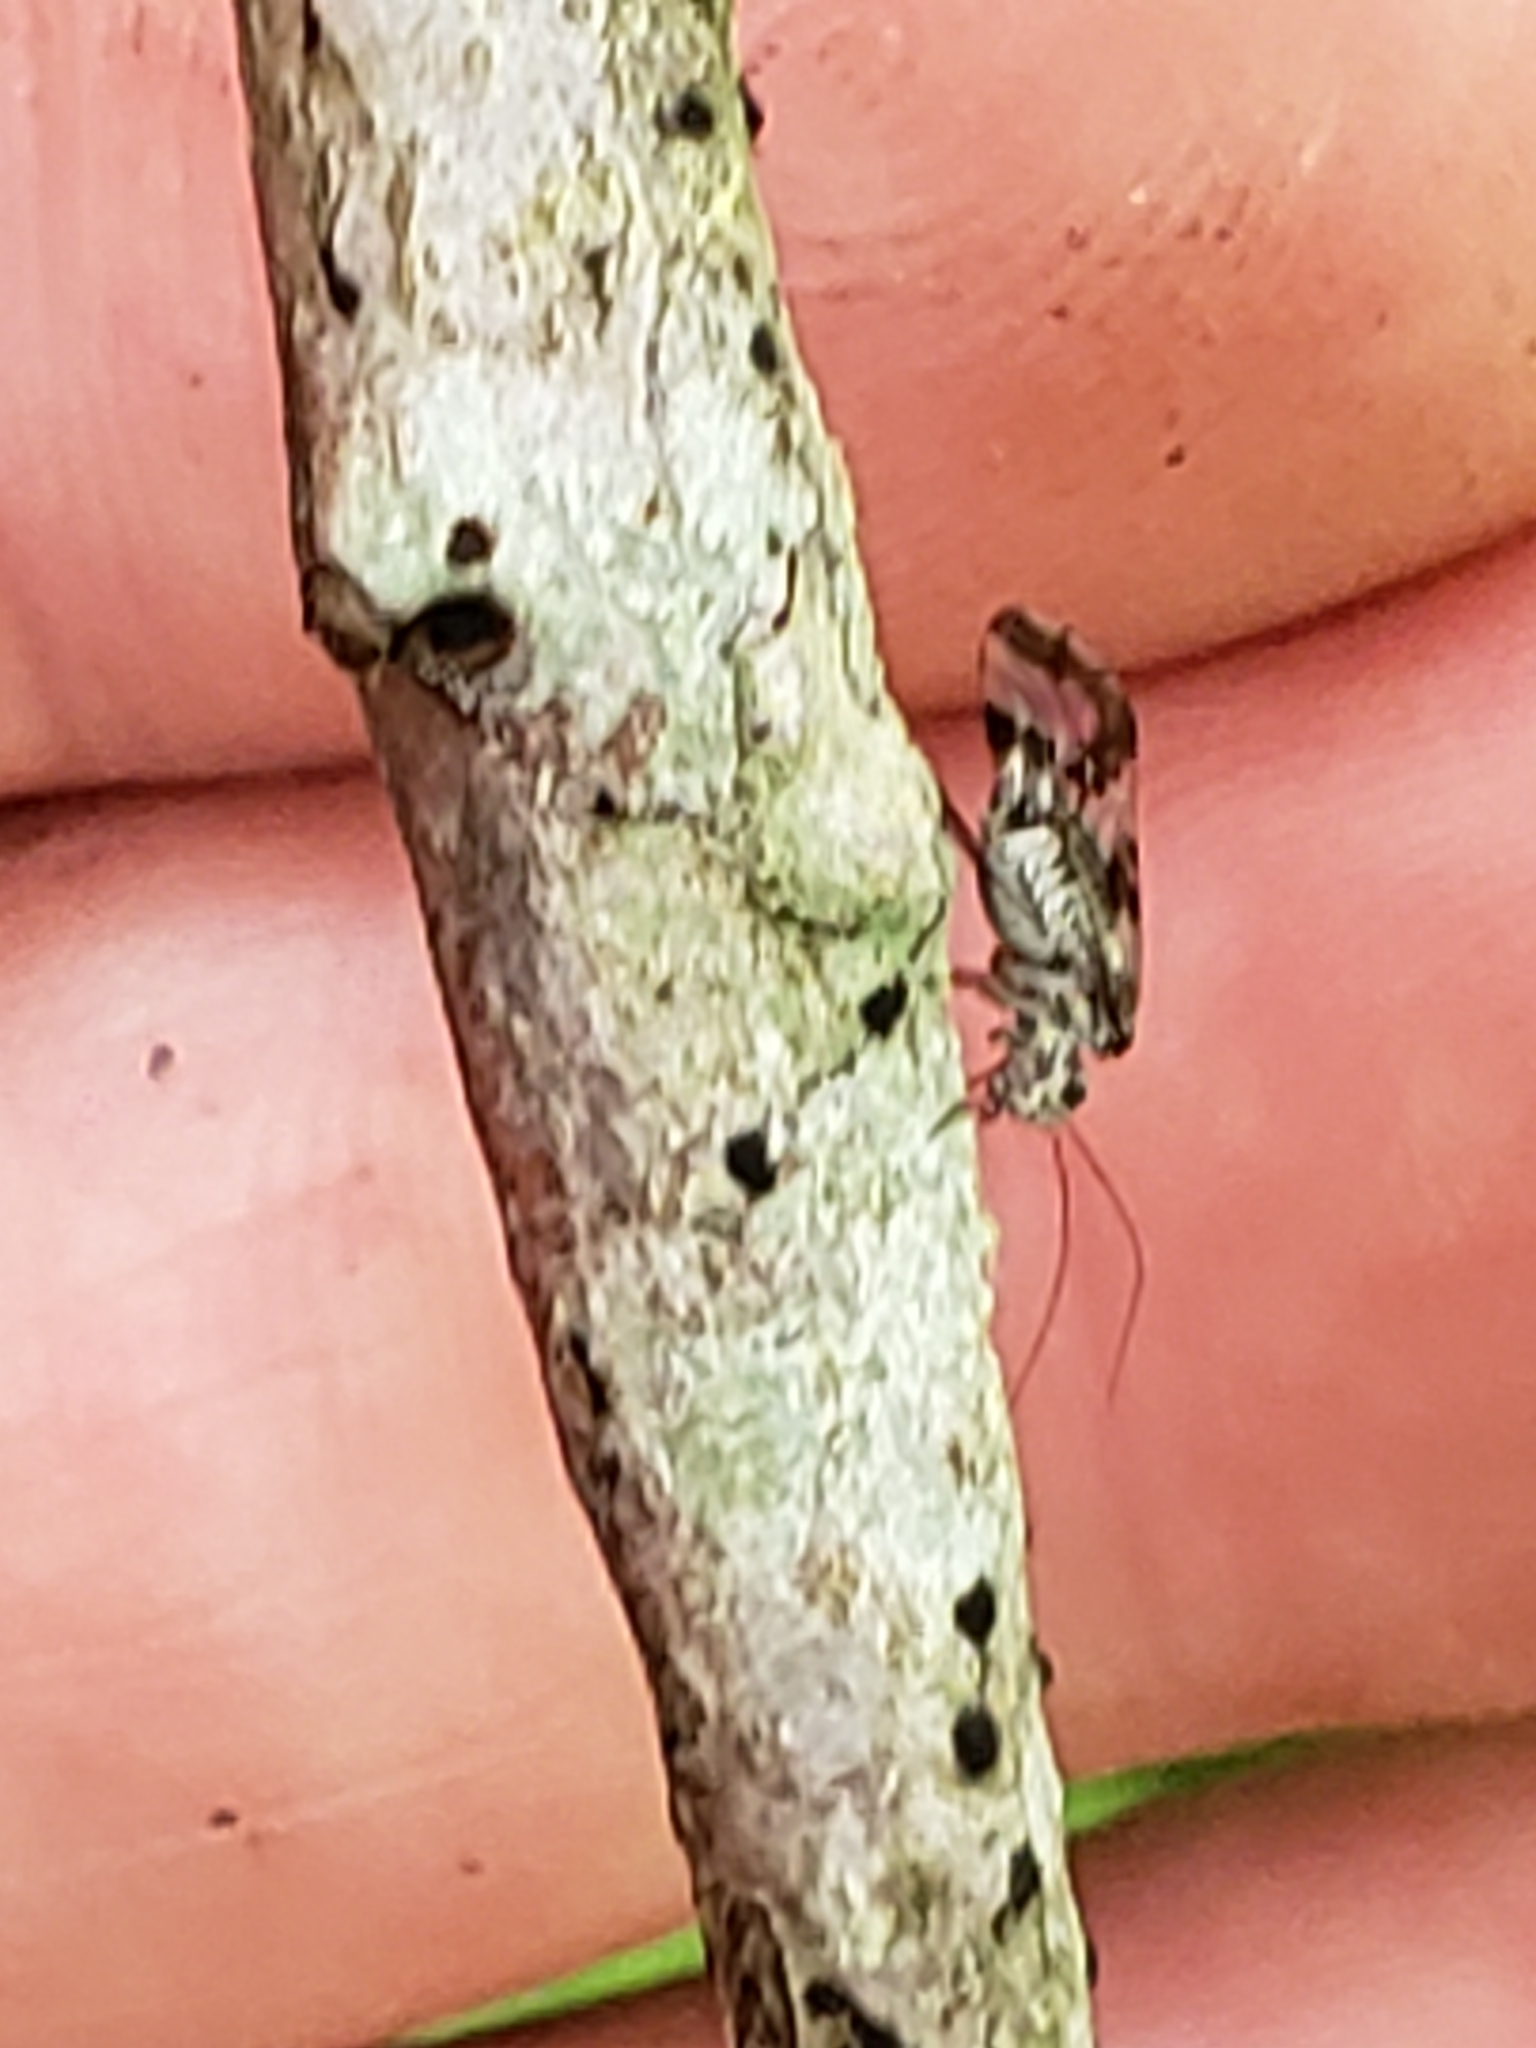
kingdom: Animalia
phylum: Arthropoda
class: Insecta
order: Psocodea
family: Stenopsocidae
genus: Graphopsocus
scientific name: Graphopsocus cruciatus
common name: Lizard bark louse
